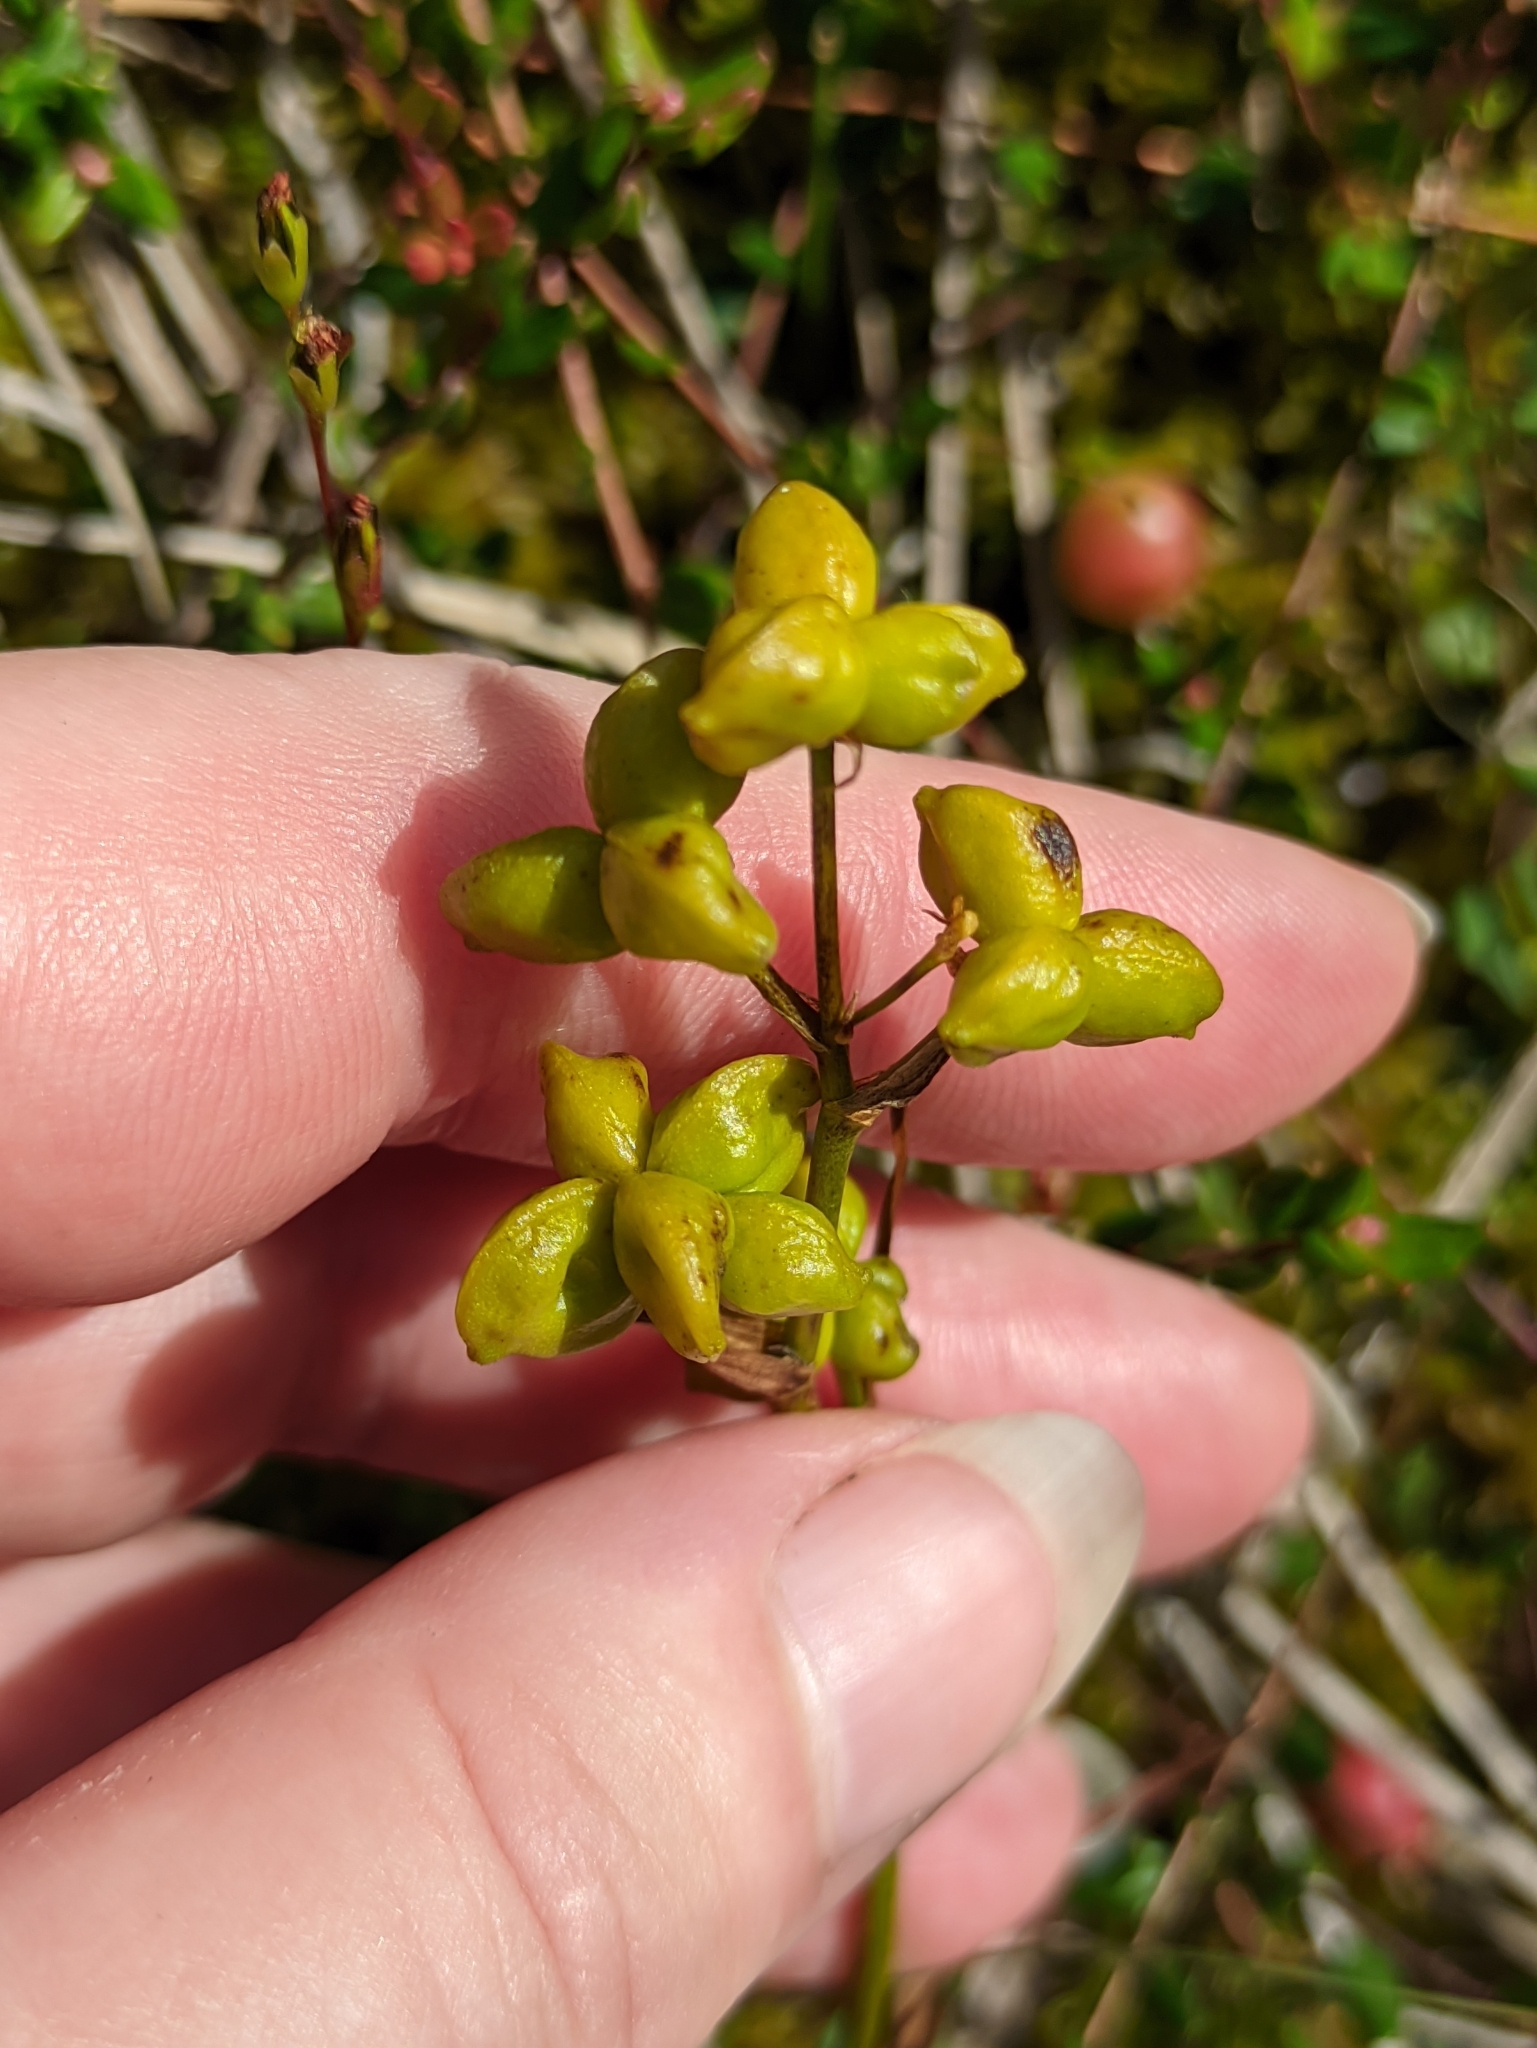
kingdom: Plantae
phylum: Tracheophyta
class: Liliopsida
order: Alismatales
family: Scheuchzeriaceae
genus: Scheuchzeria
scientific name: Scheuchzeria palustris
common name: Rannoch-rush
